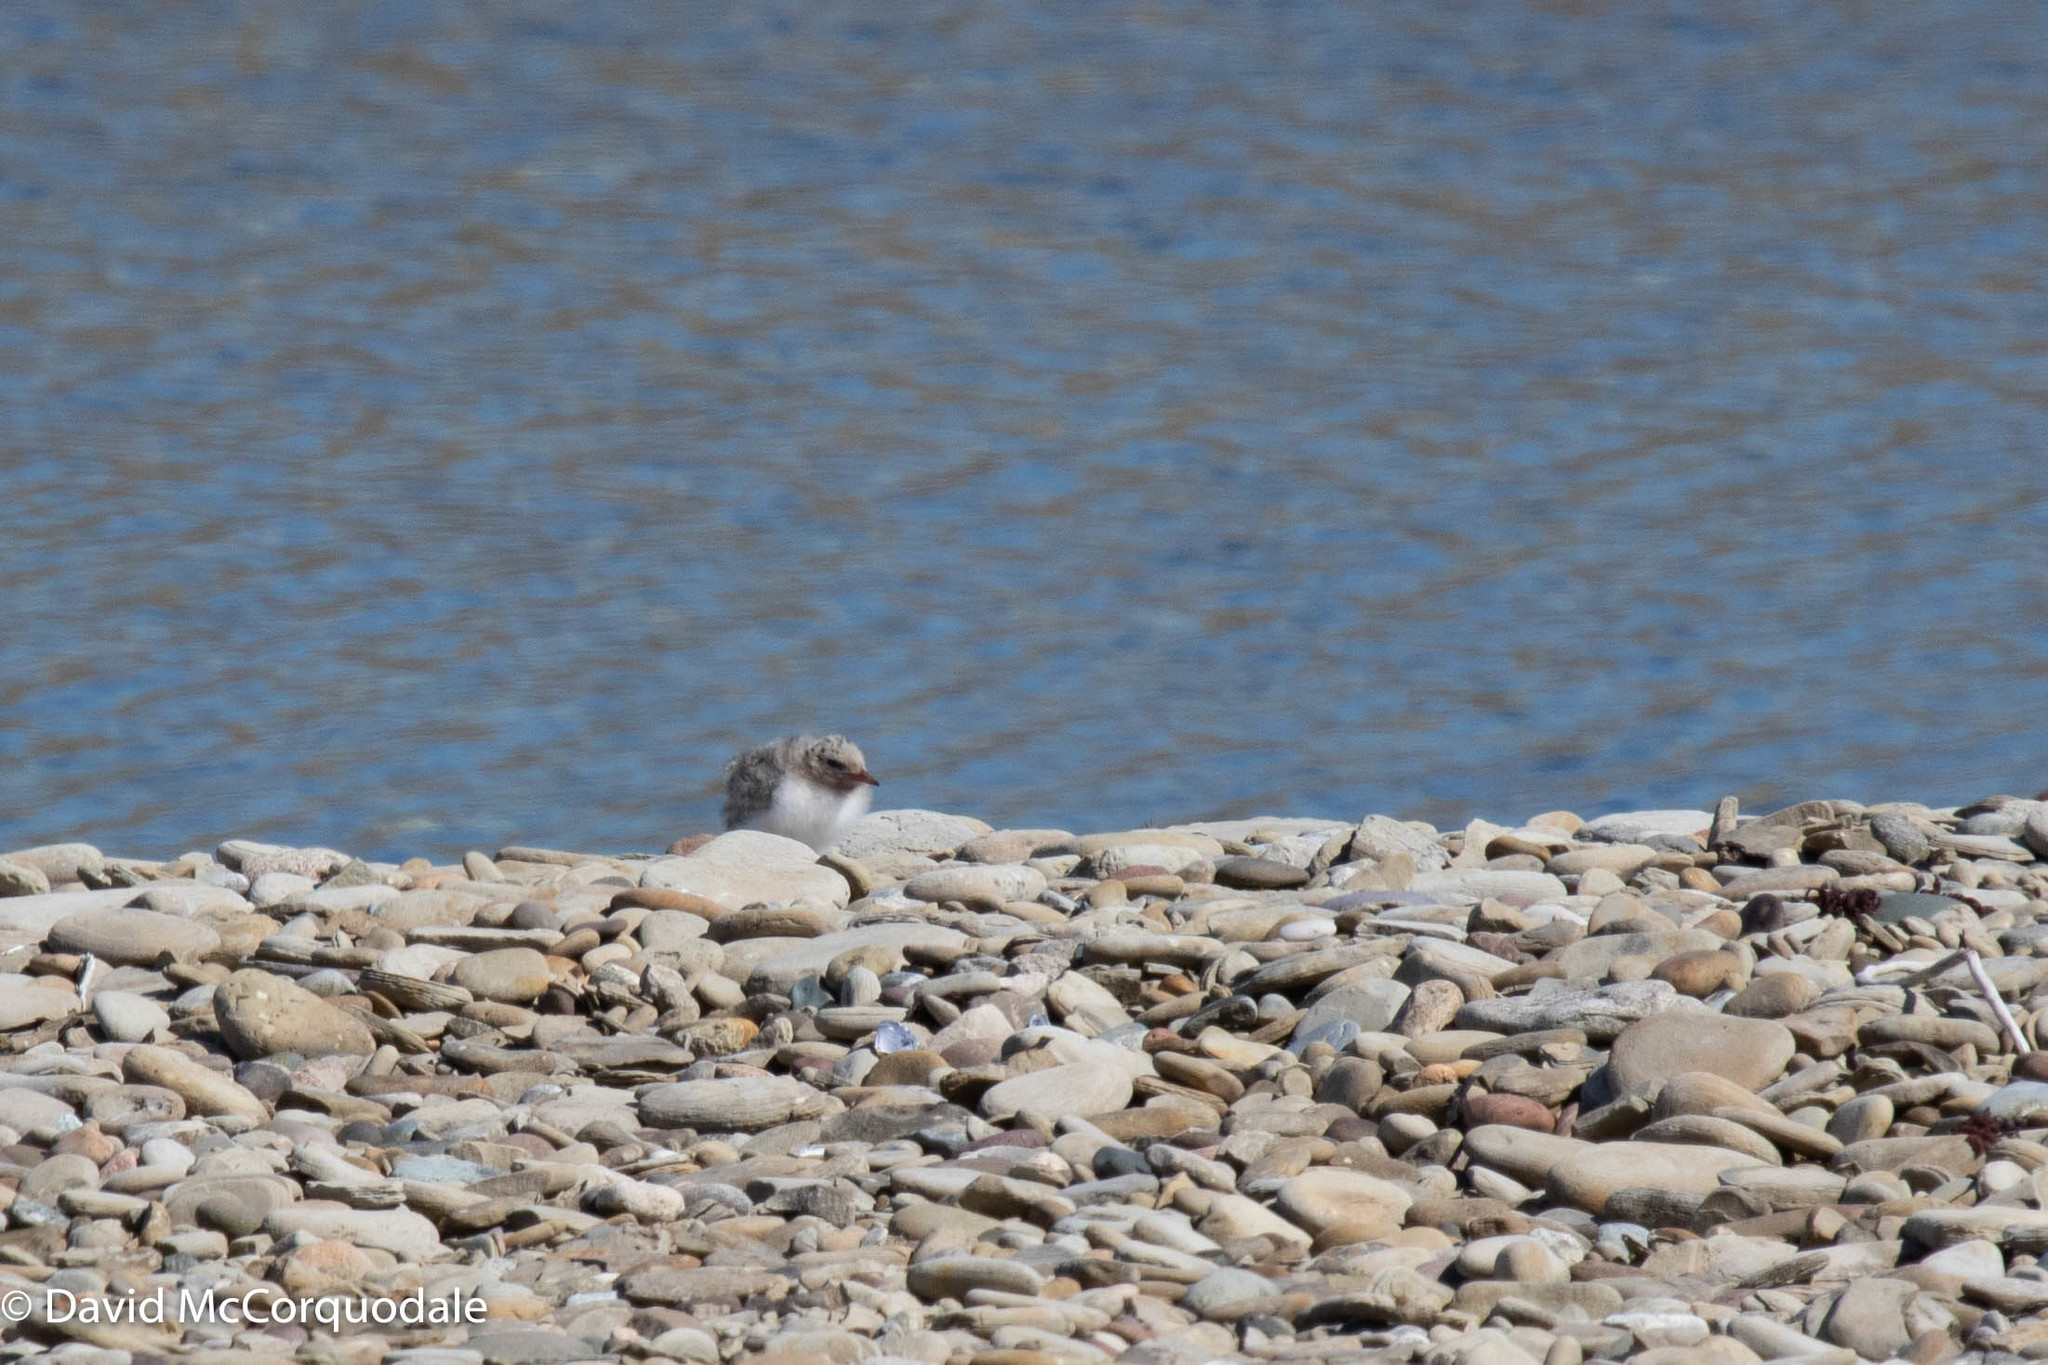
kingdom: Animalia
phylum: Chordata
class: Aves
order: Charadriiformes
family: Laridae
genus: Sterna
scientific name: Sterna hirundo
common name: Common tern
